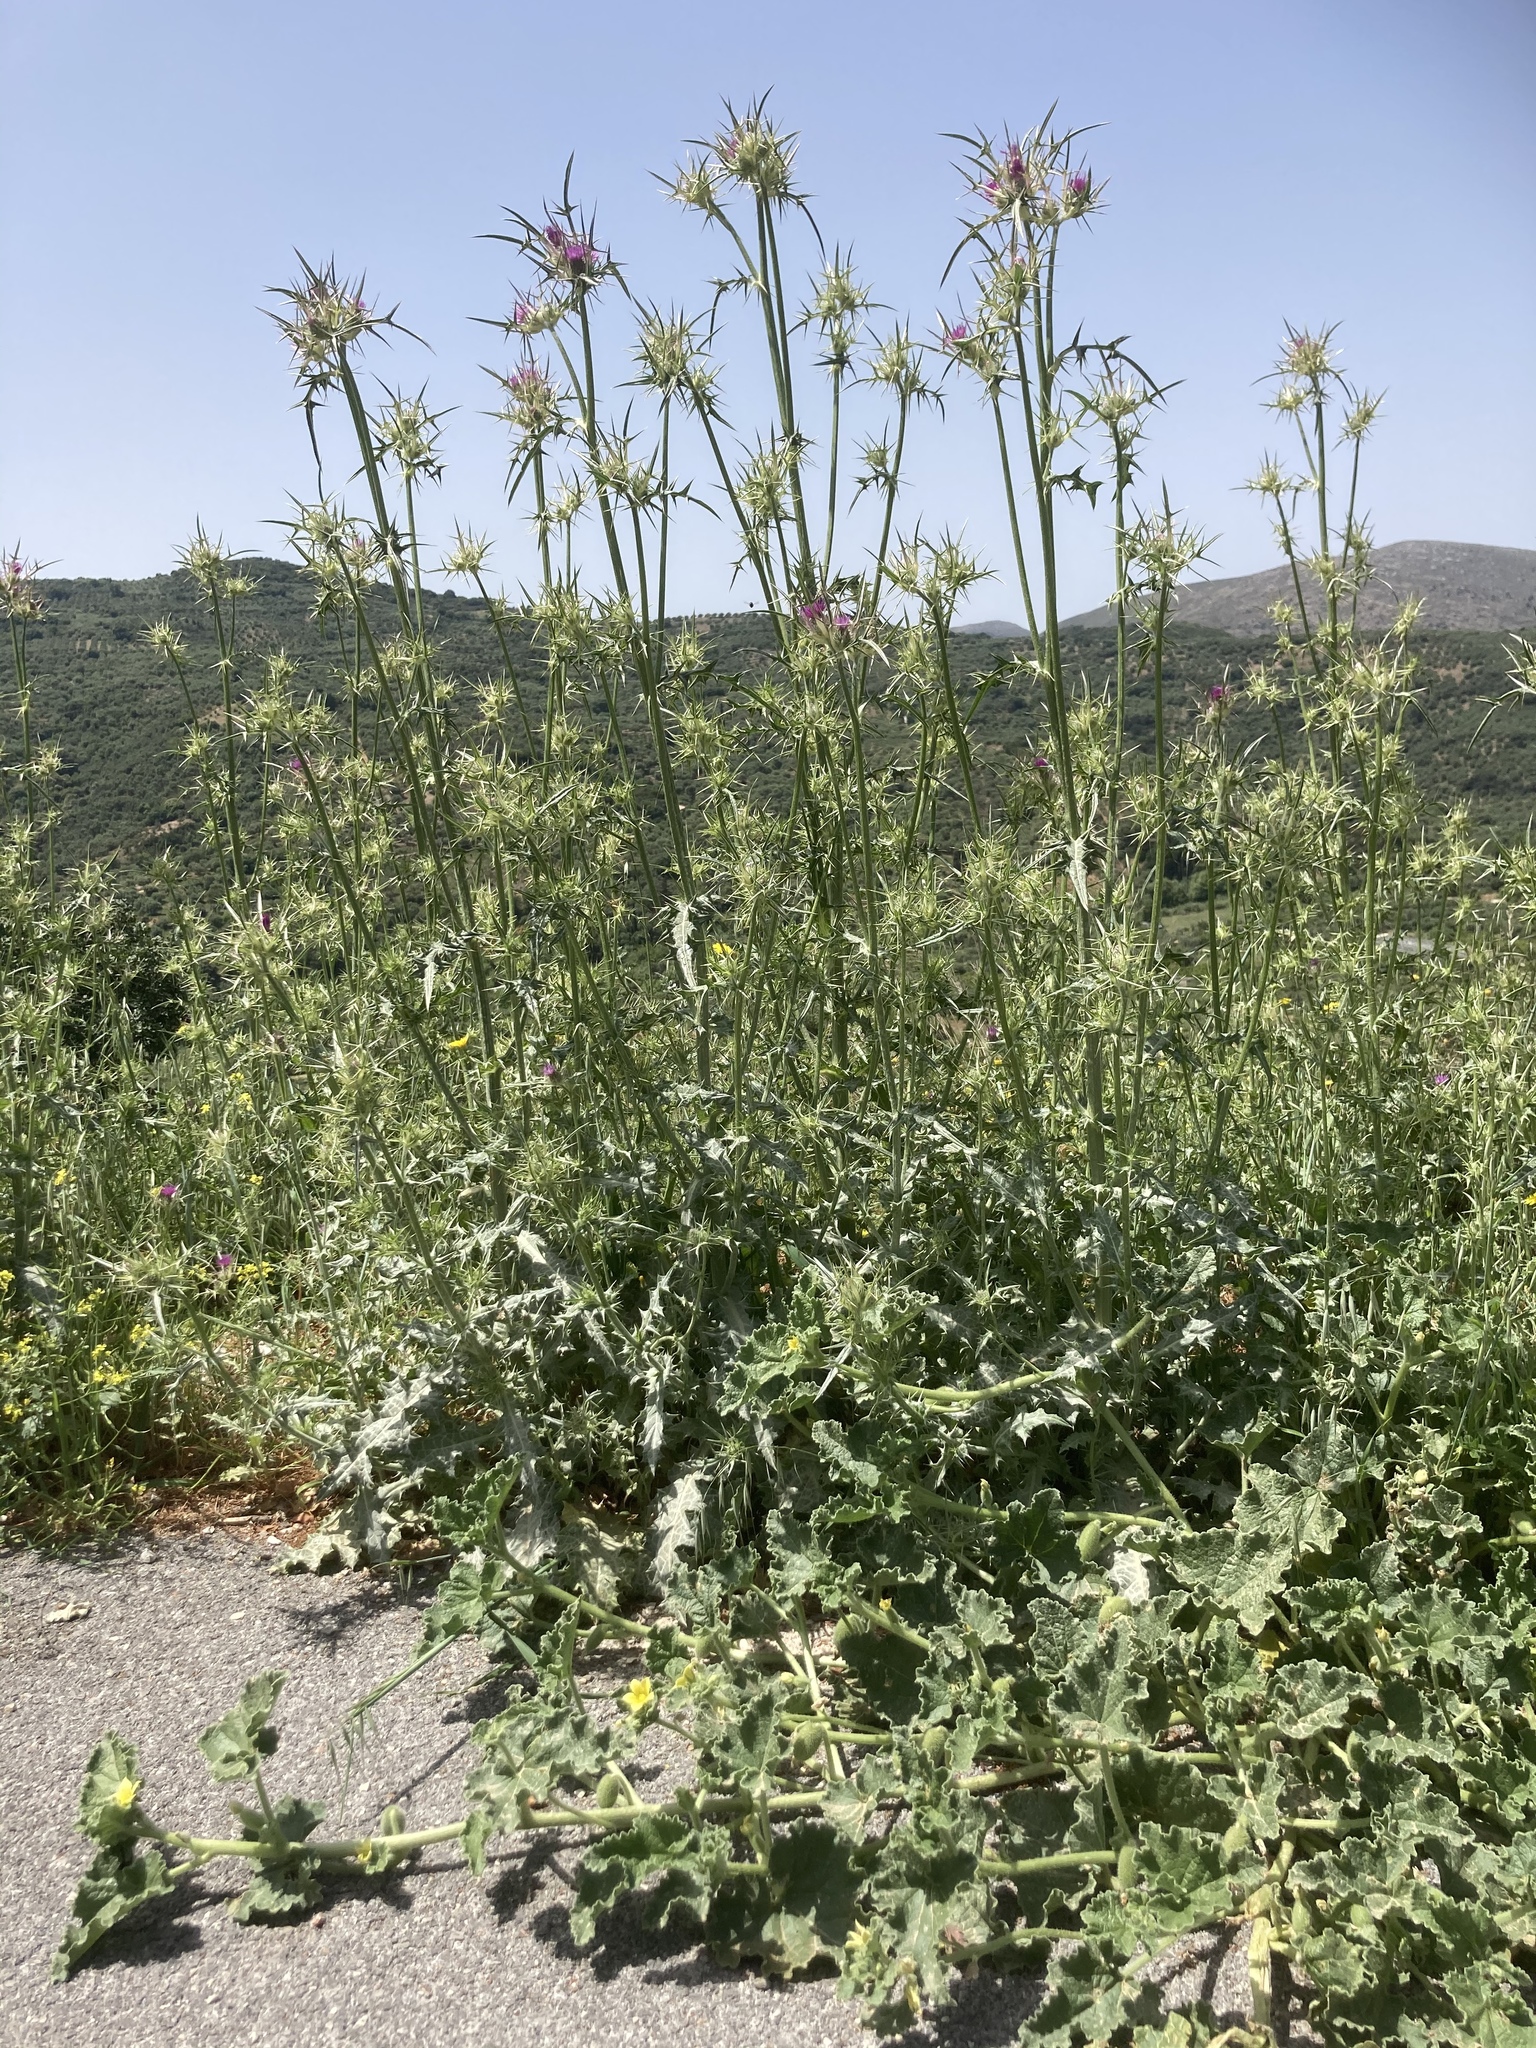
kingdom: Plantae
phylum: Tracheophyta
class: Magnoliopsida
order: Asterales
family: Asteraceae
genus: Notobasis
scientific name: Notobasis syriaca
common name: Syrian thistle
